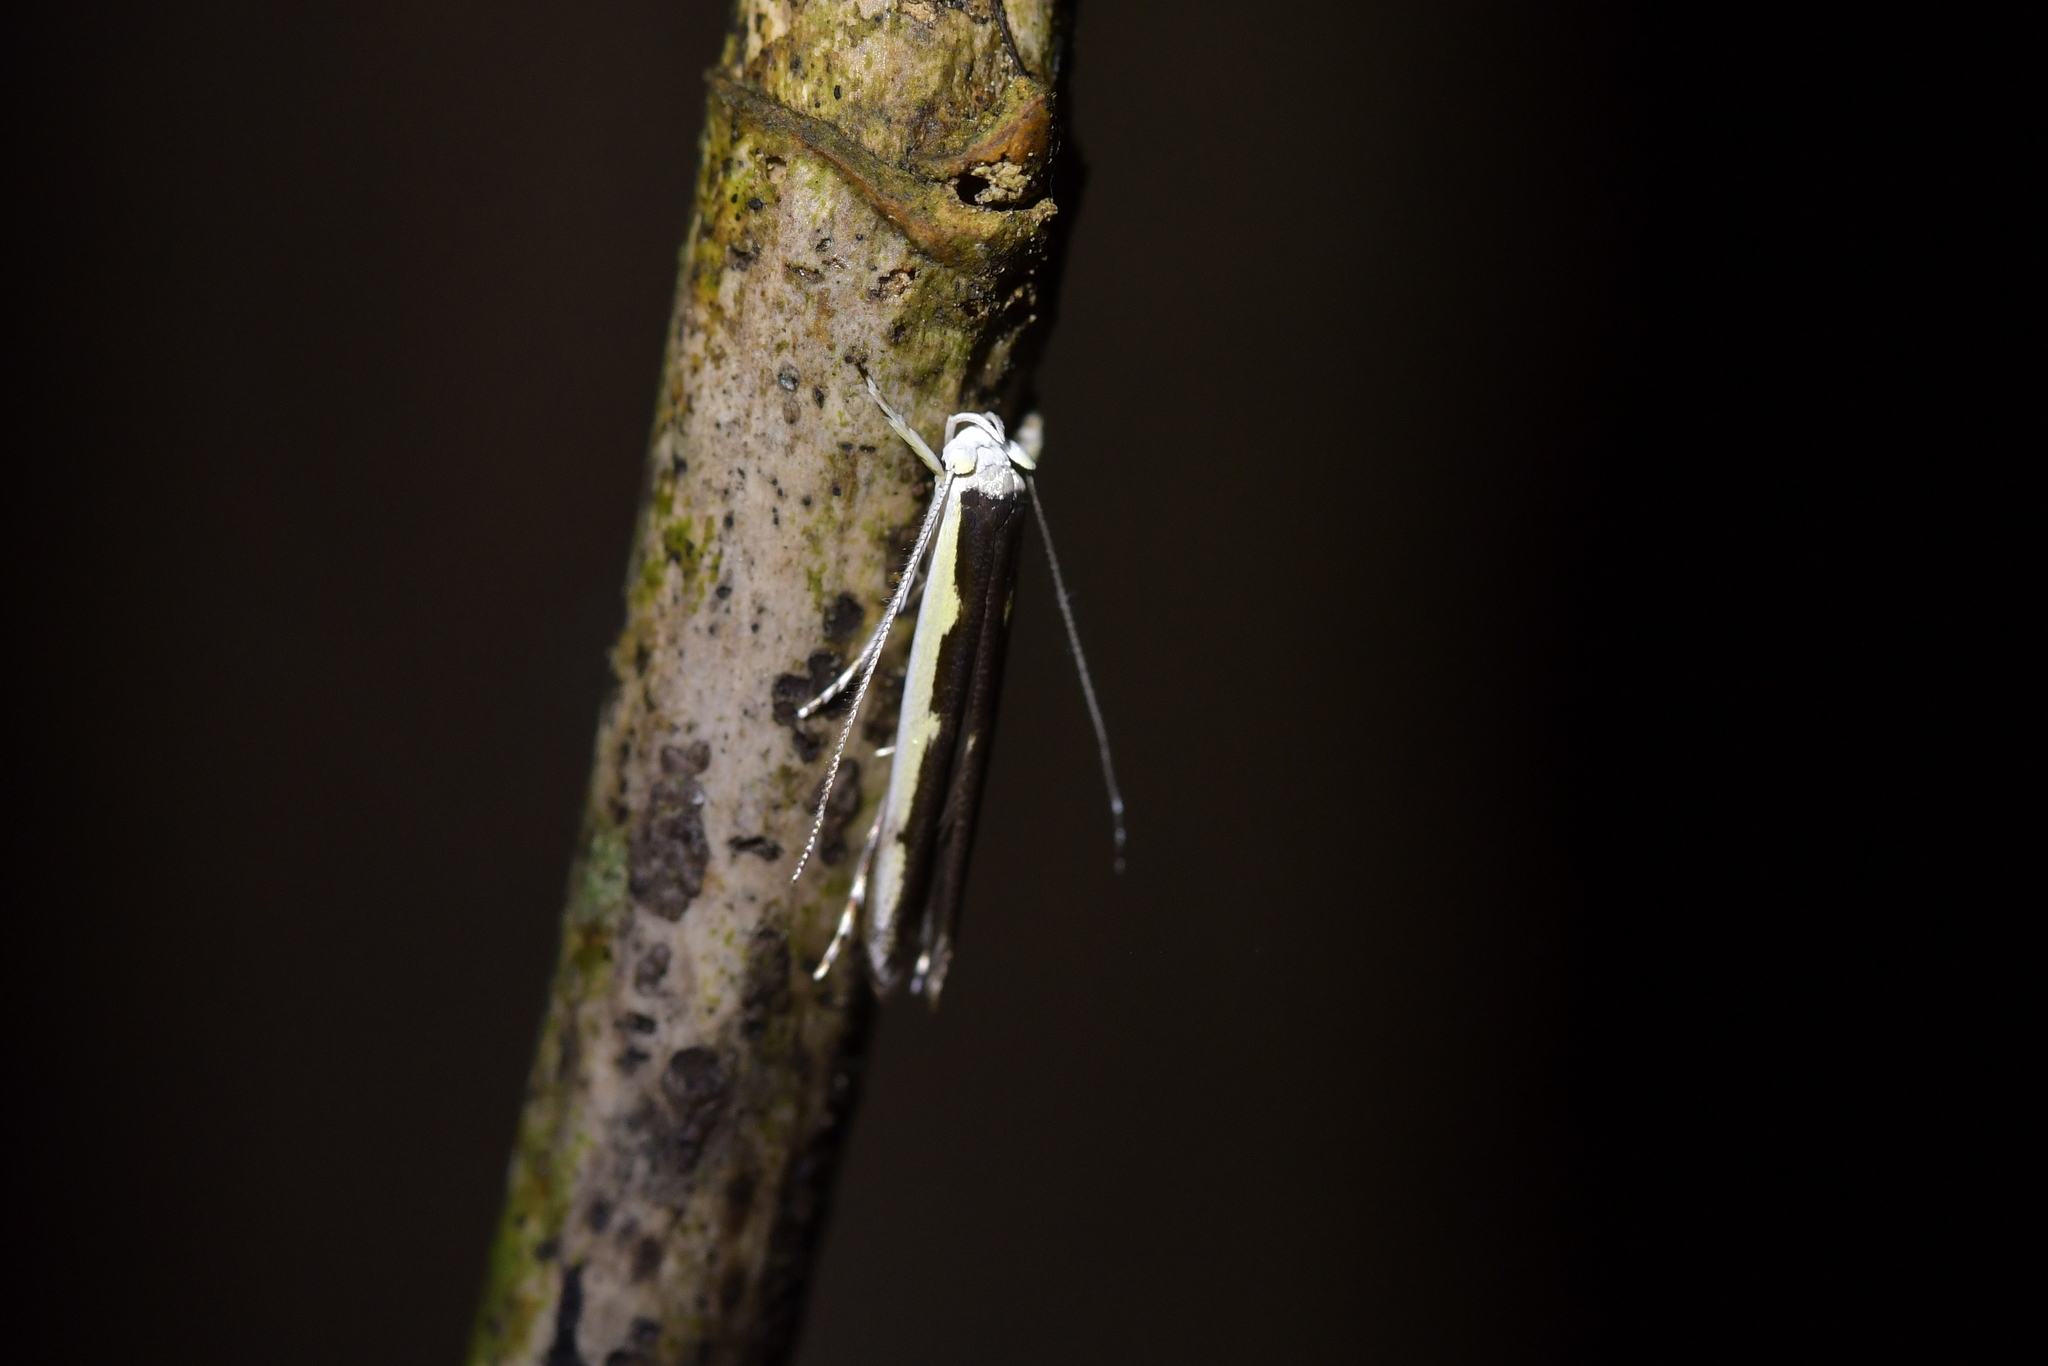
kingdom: Animalia
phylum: Arthropoda
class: Insecta
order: Lepidoptera
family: Roeslerstammiidae
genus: Vanicela
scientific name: Vanicela disjunctella
